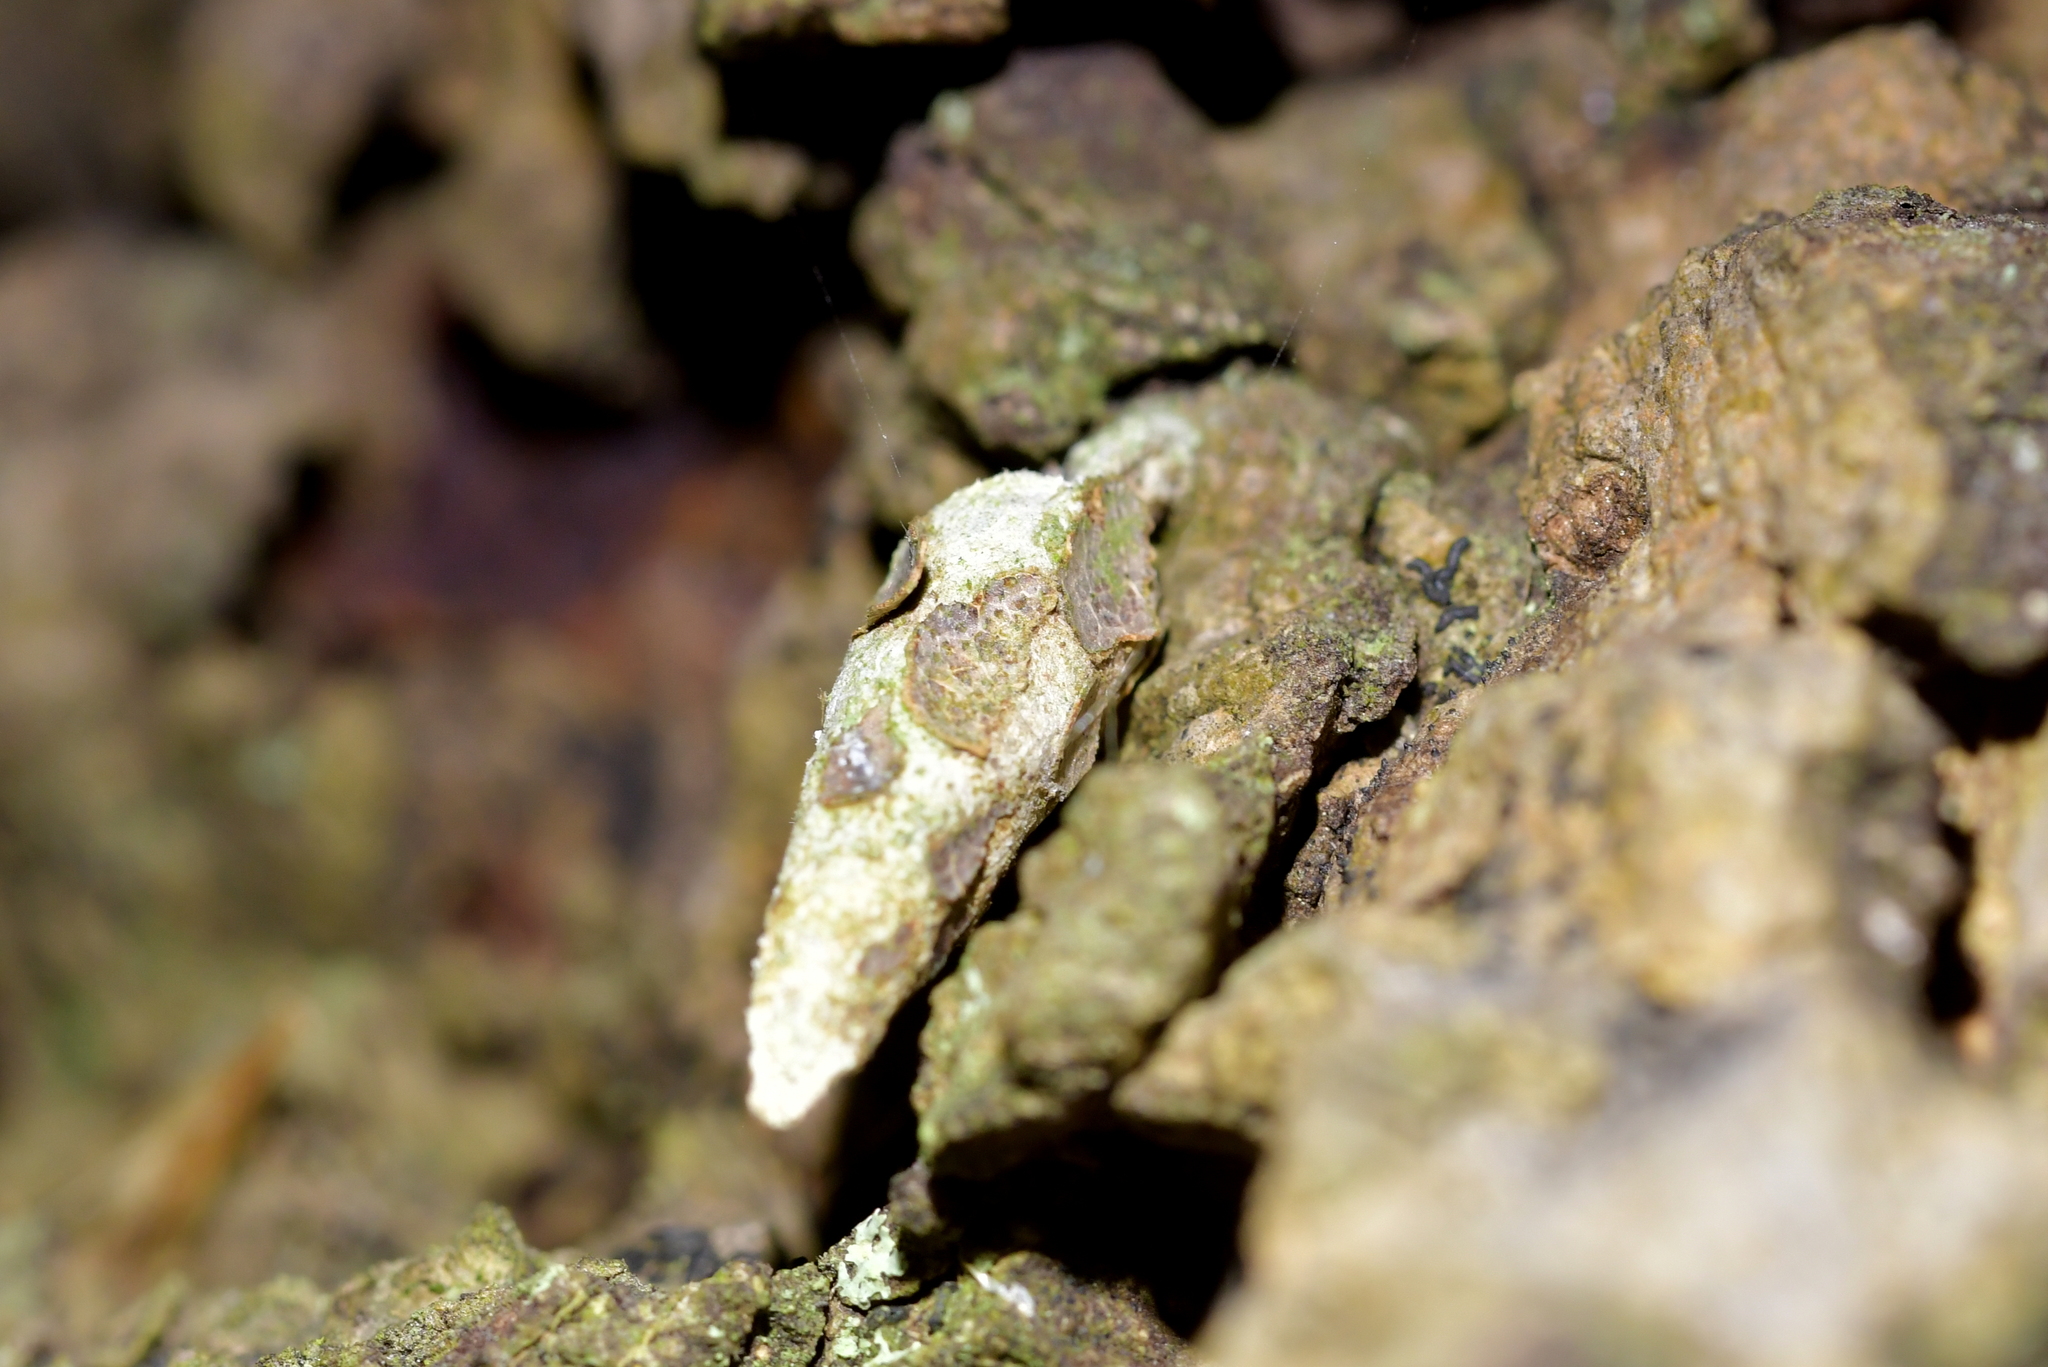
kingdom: Animalia
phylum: Arthropoda
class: Insecta
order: Lepidoptera
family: Psychidae
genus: Liothula
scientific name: Liothula omnivora
